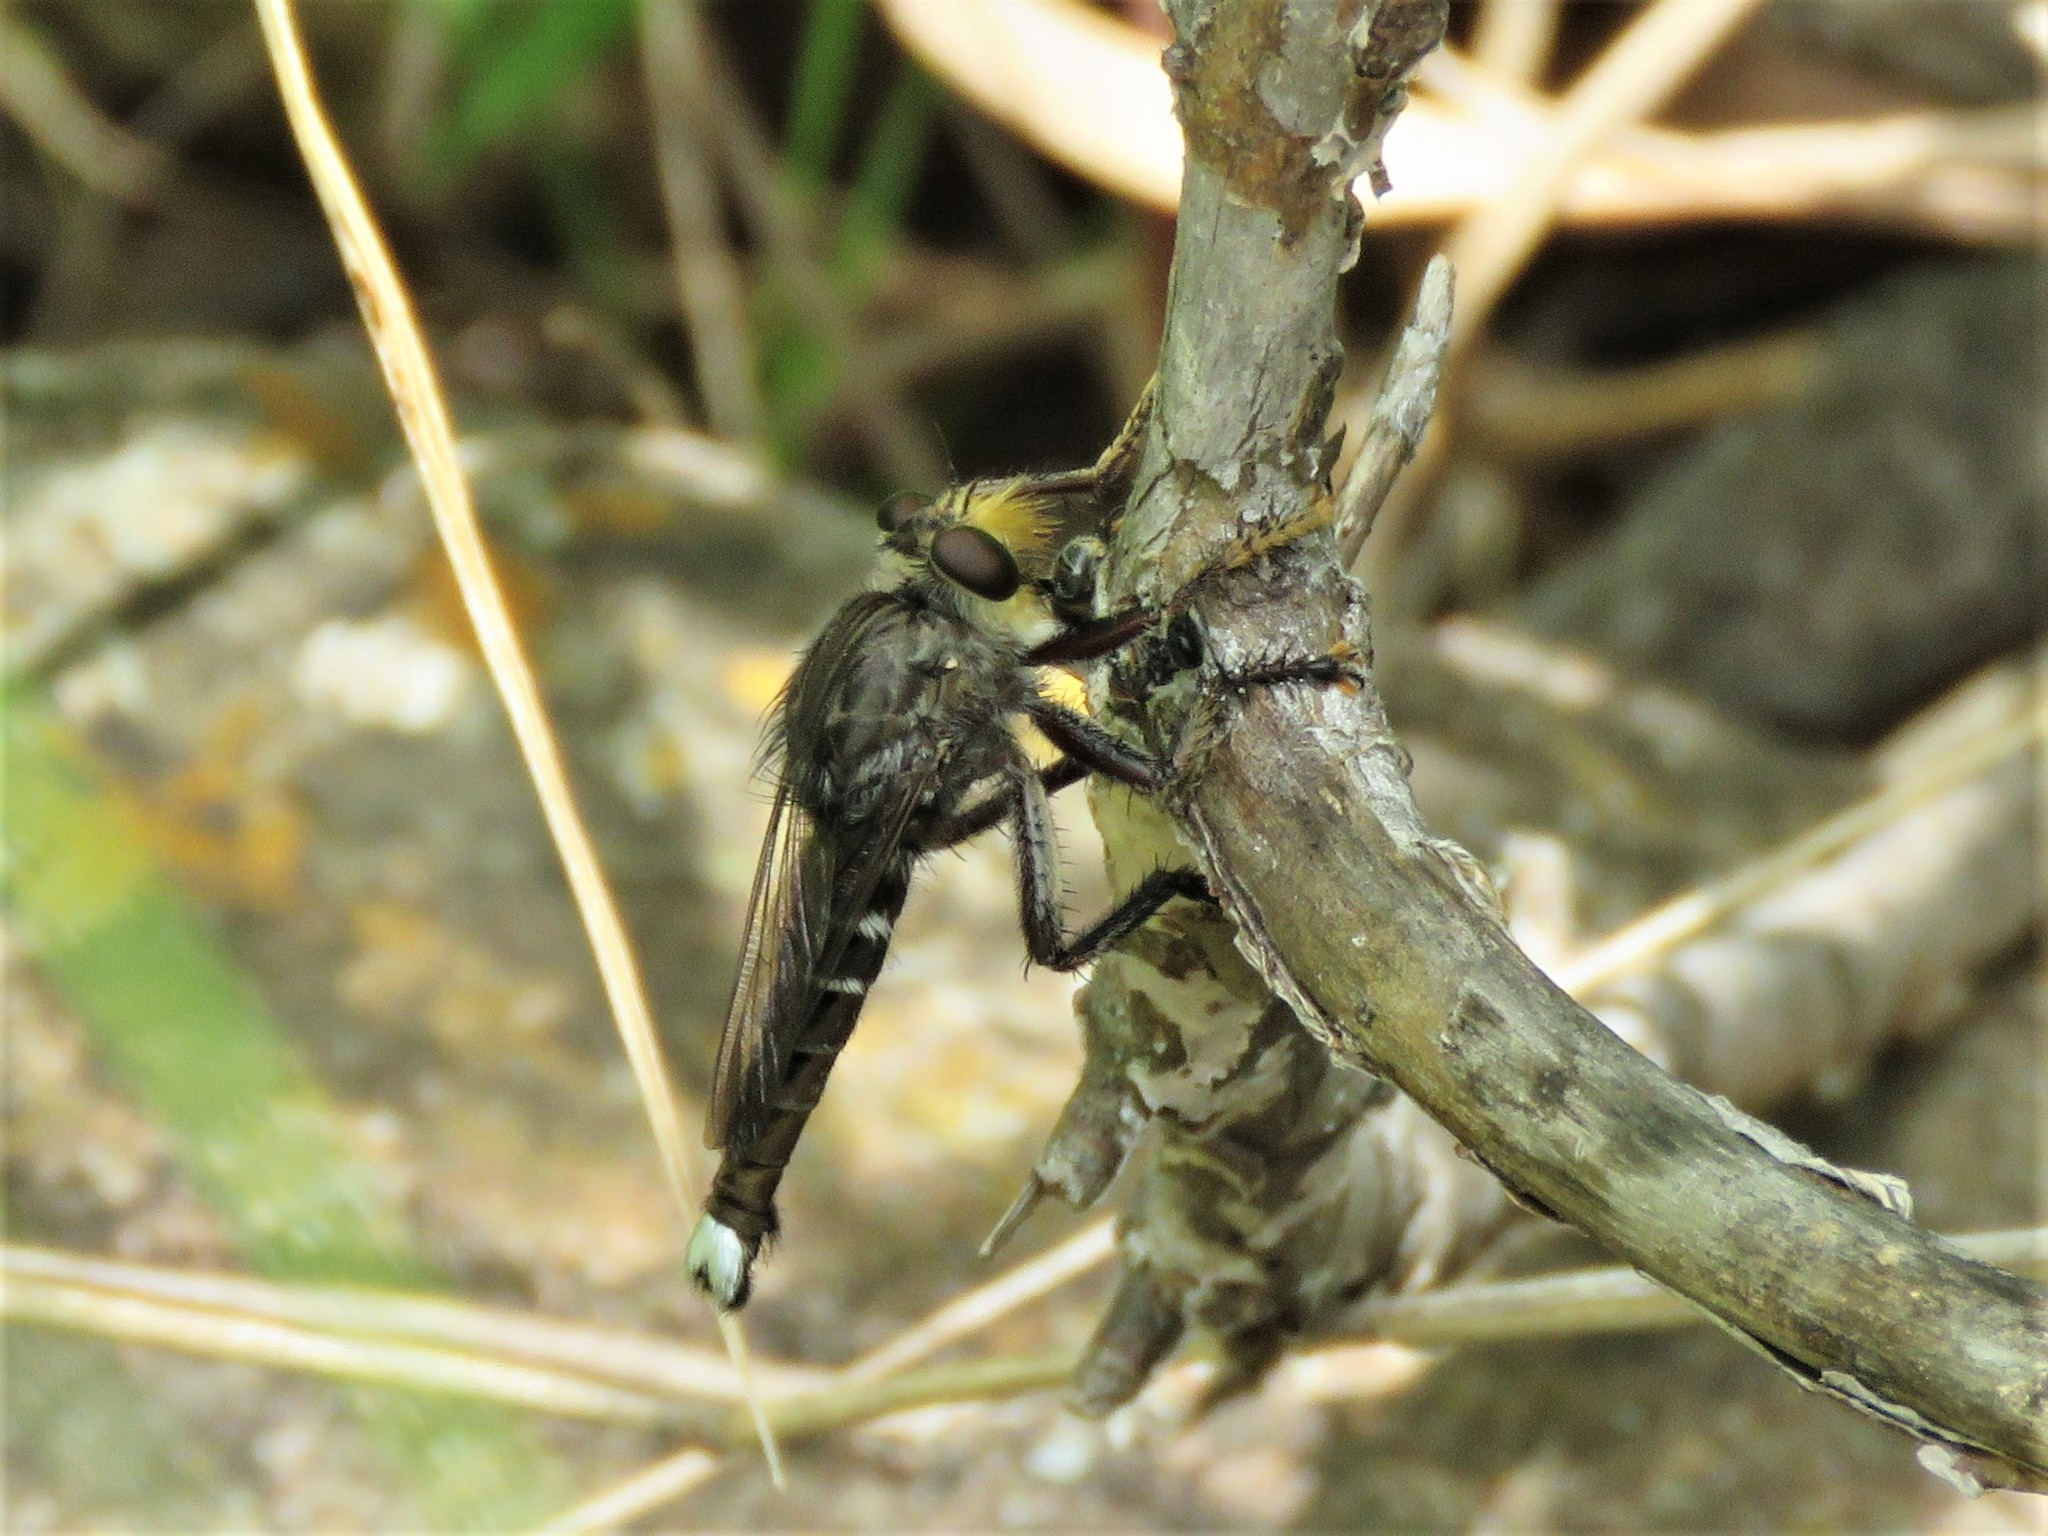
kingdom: Animalia
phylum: Arthropoda
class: Insecta
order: Diptera
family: Asilidae
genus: Promachus
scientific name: Promachus bastardii
